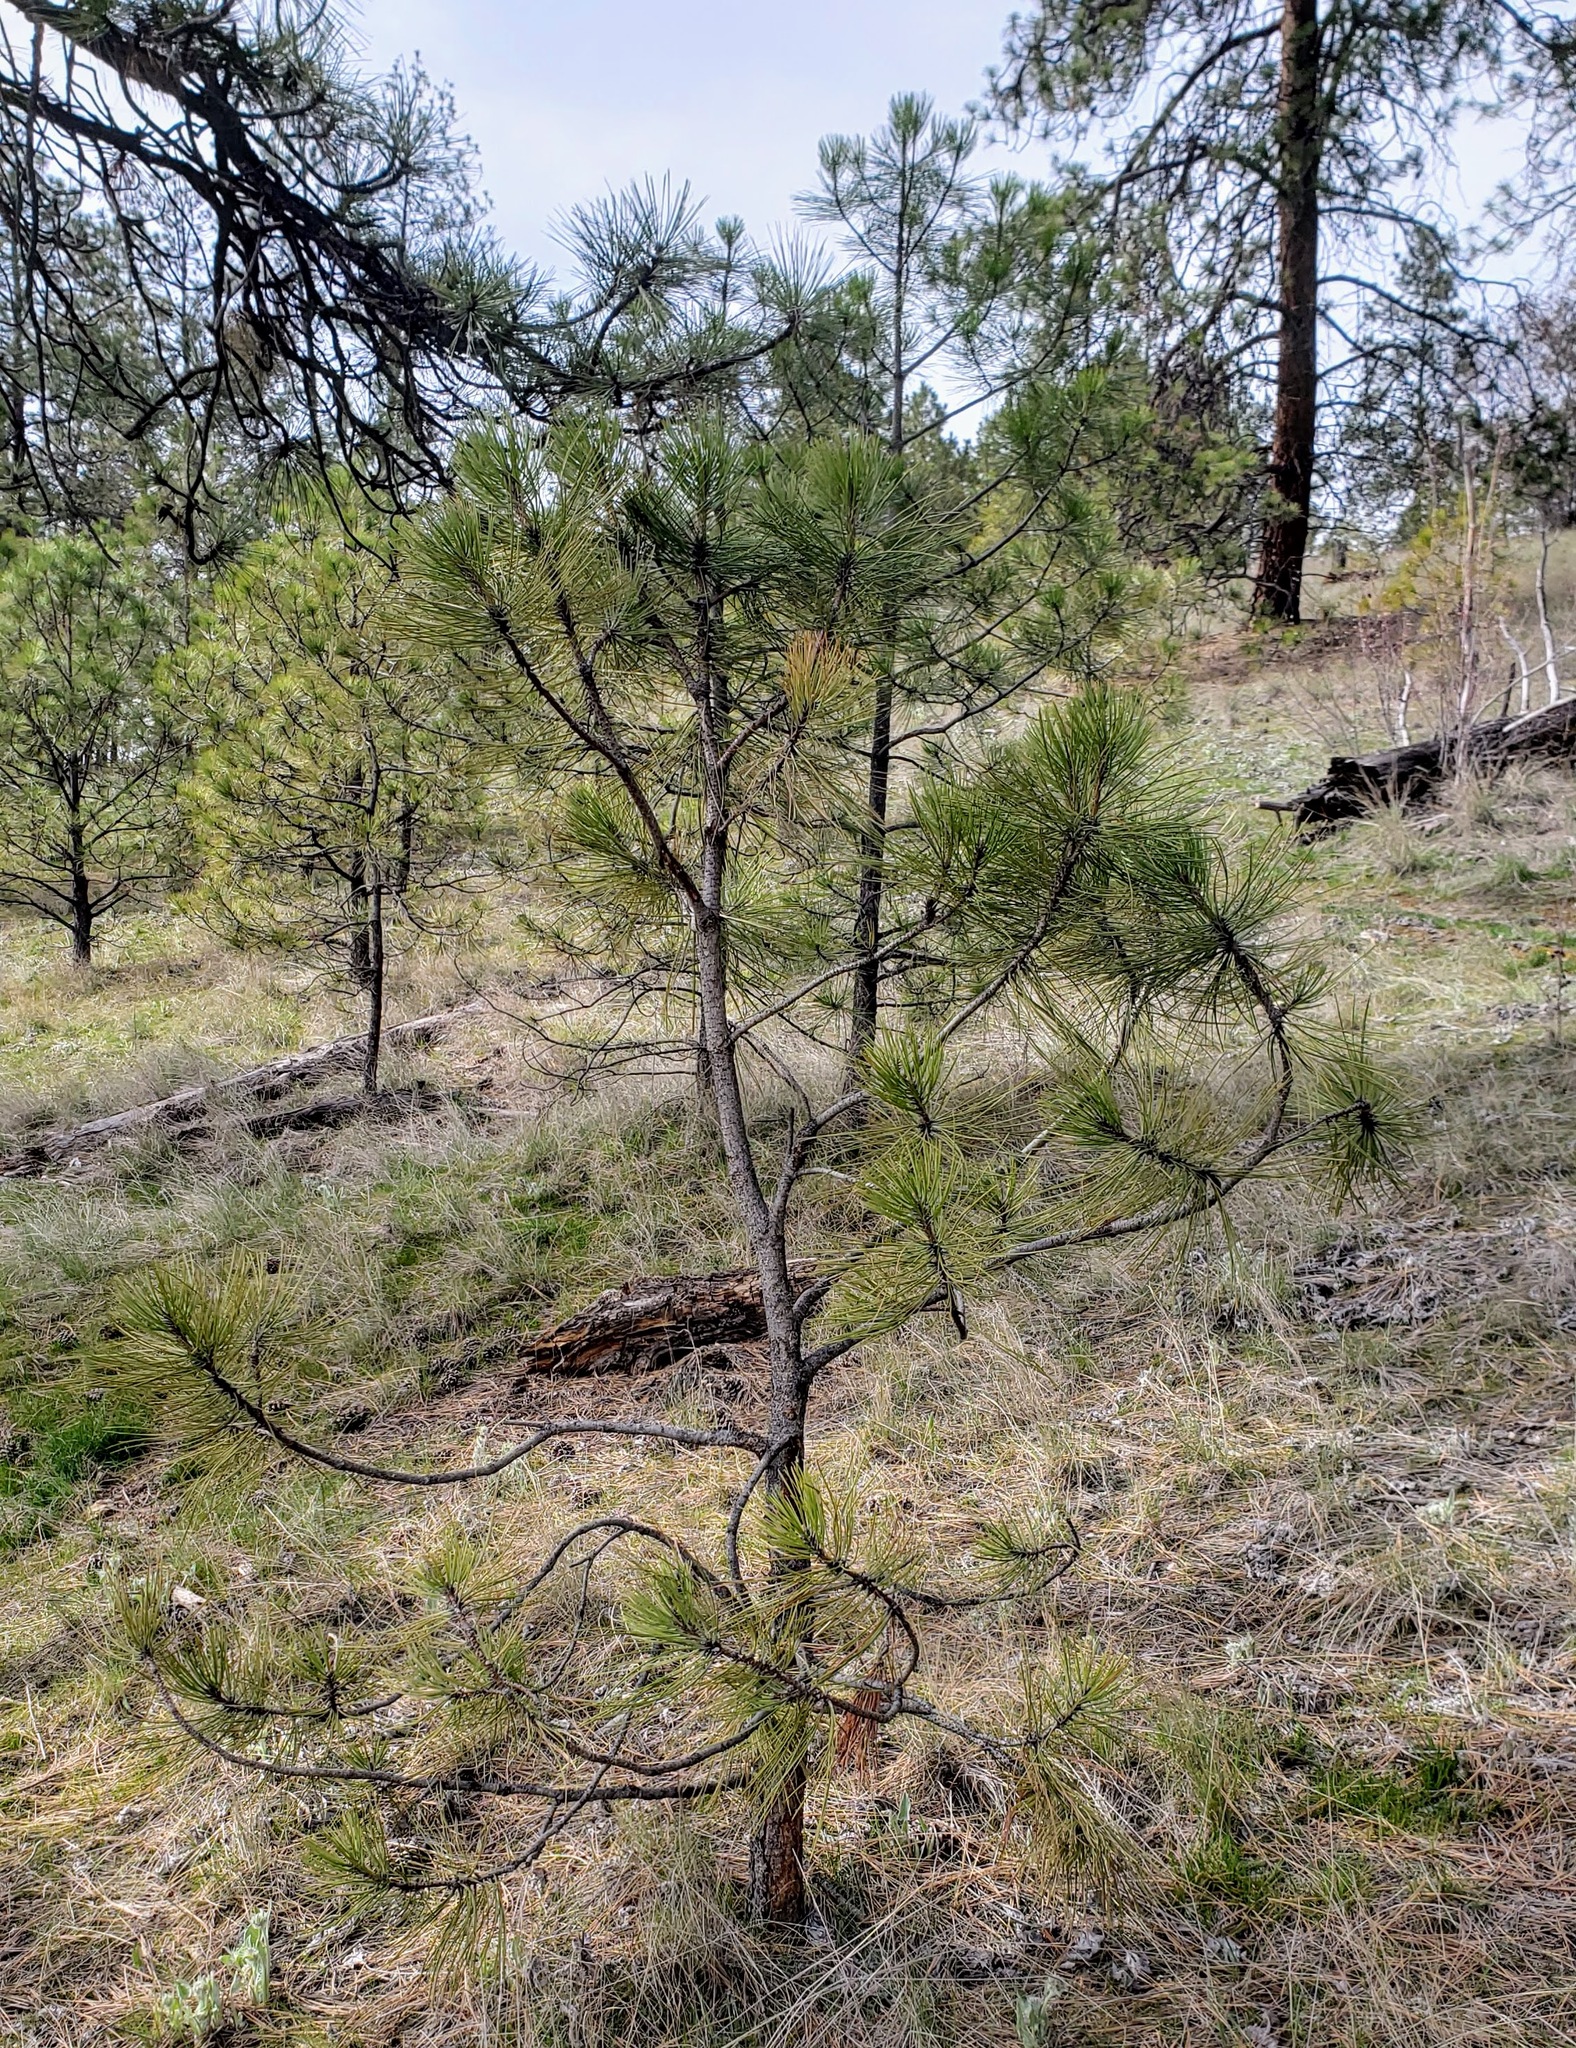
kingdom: Plantae
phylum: Tracheophyta
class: Pinopsida
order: Pinales
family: Pinaceae
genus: Pinus
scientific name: Pinus ponderosa
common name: Western yellow-pine
